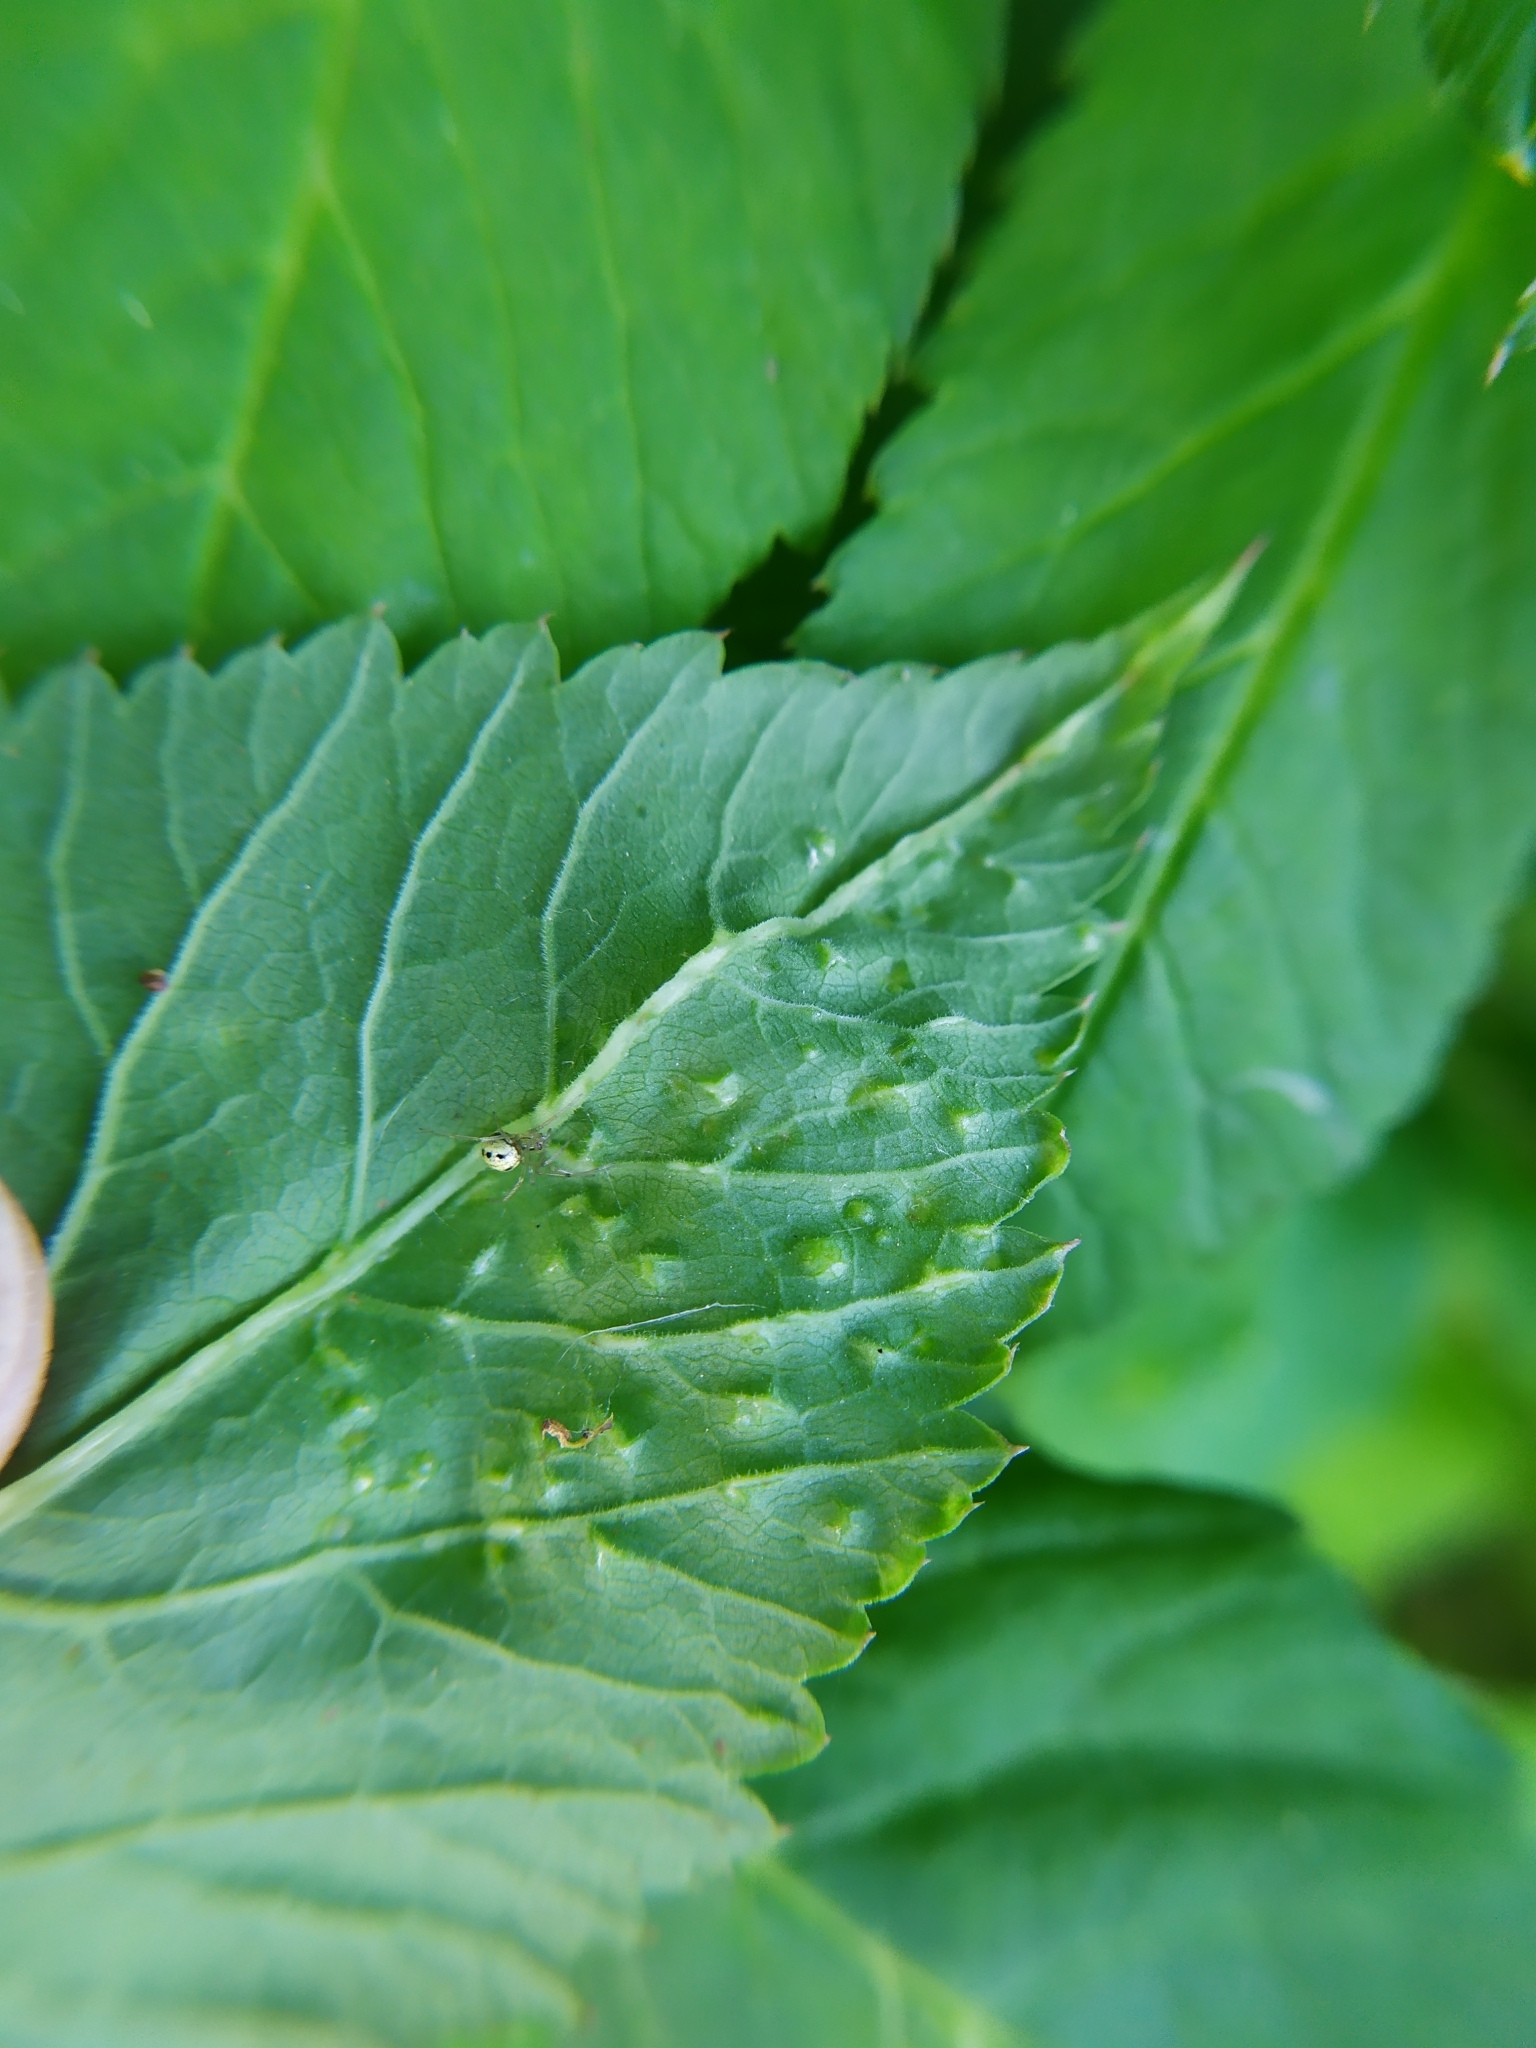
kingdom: Fungi
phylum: Ascomycota
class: Taphrinomycetes
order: Taphrinales
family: Taphrinaceae
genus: Protomyces
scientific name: Protomyces macrosporus
